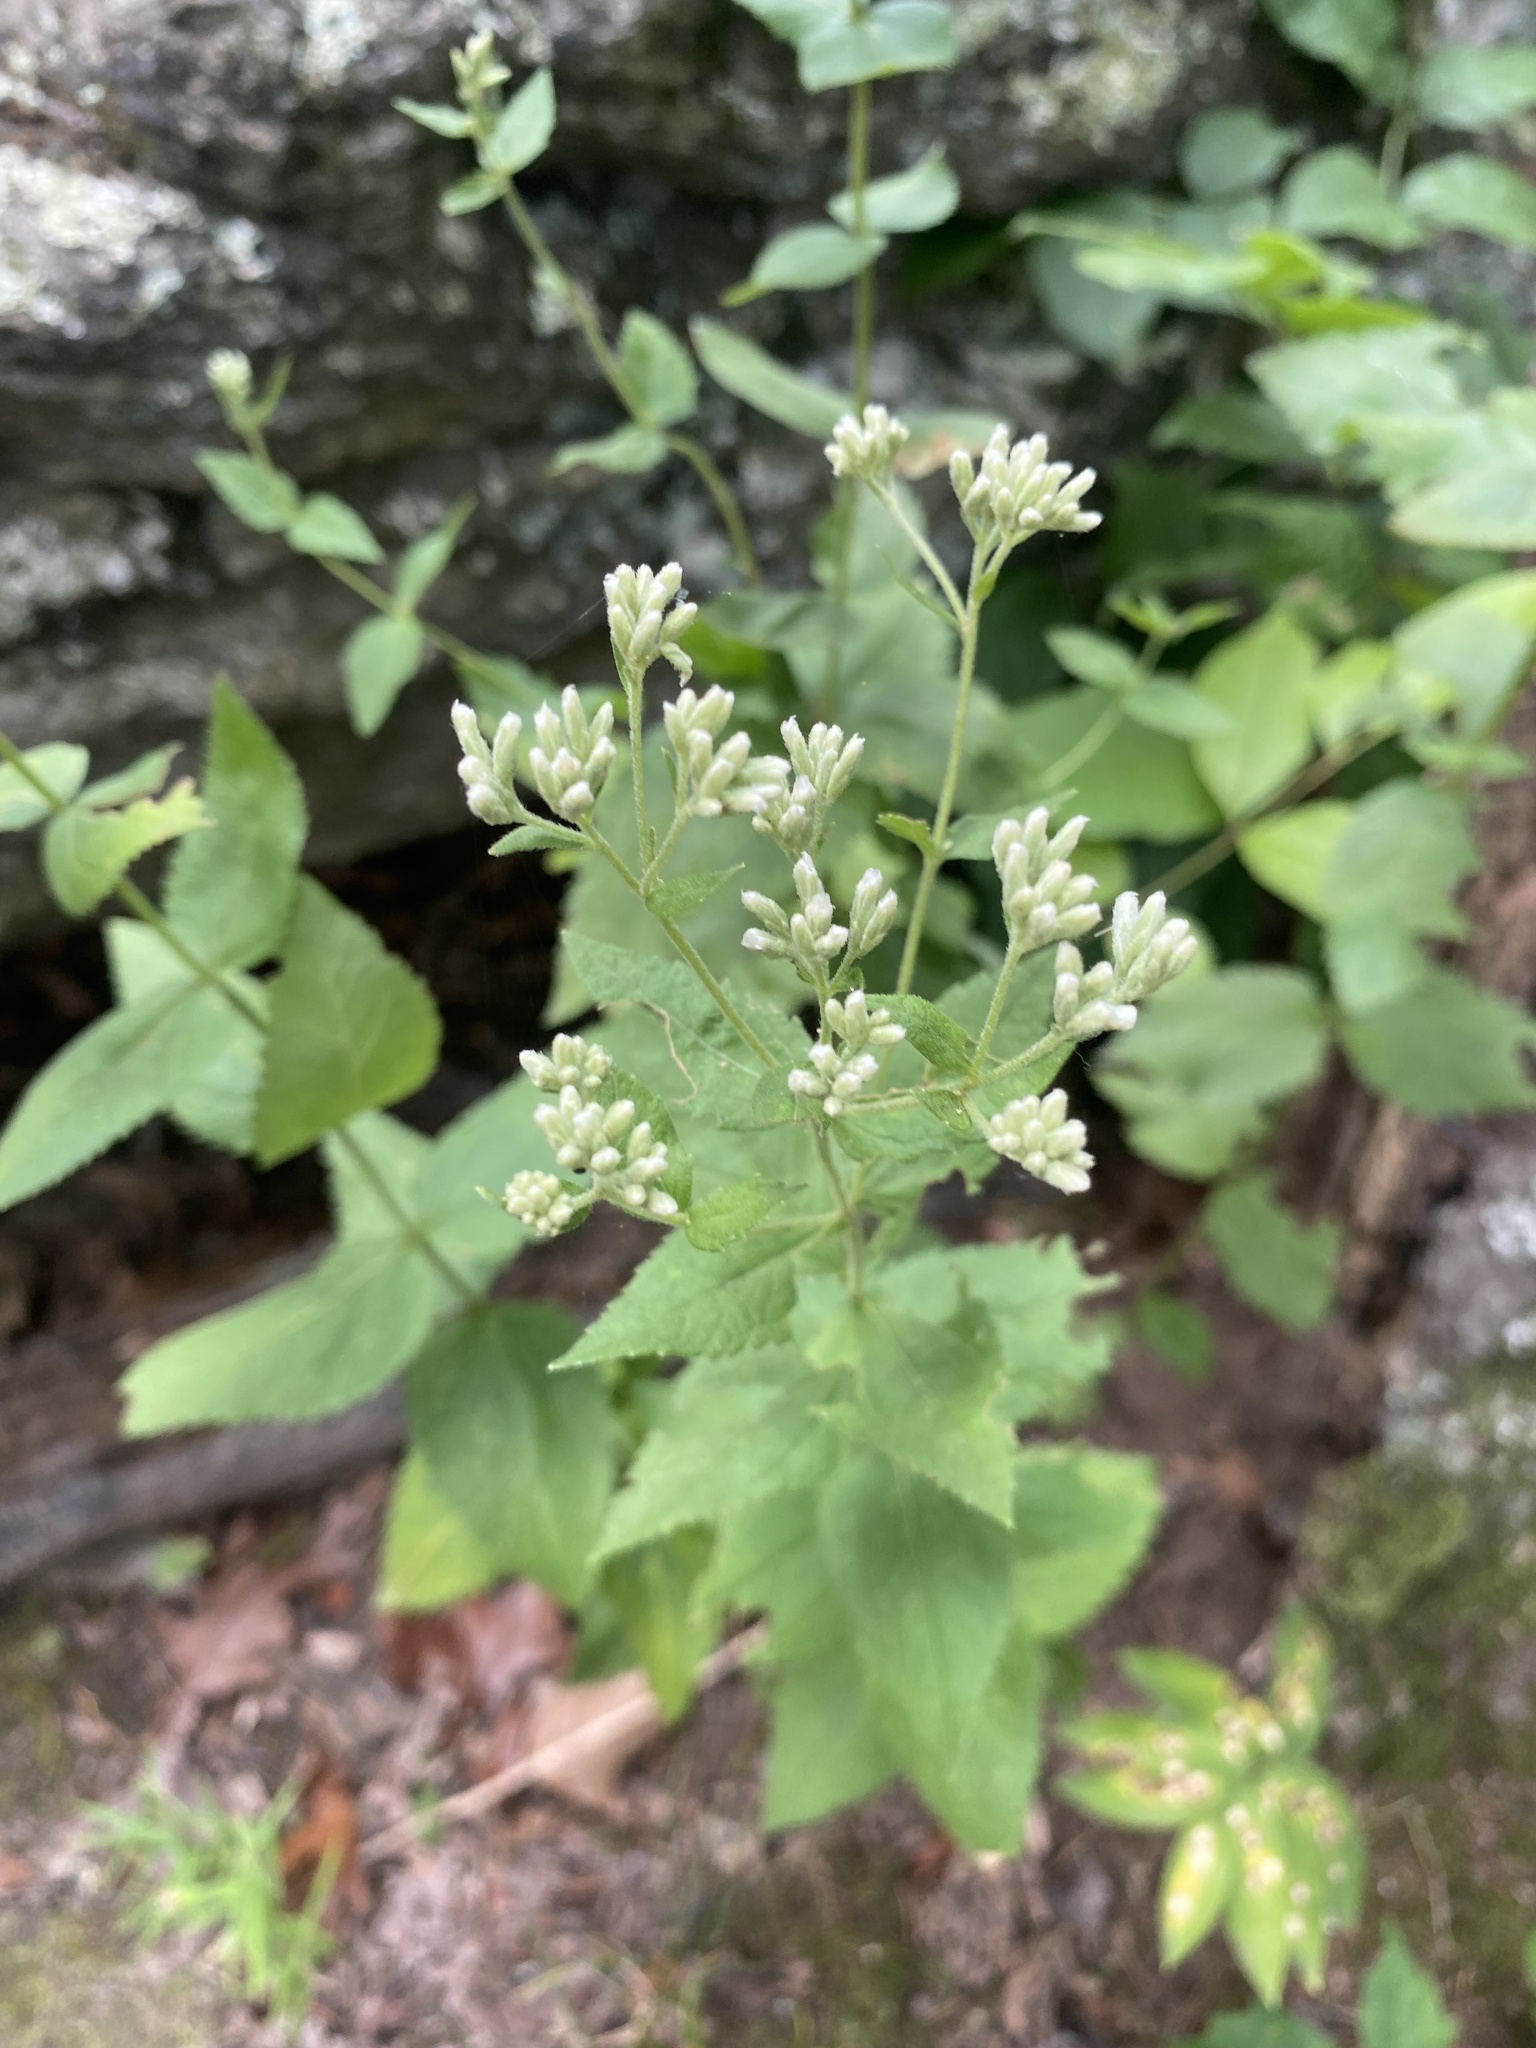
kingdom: Plantae
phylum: Tracheophyta
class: Magnoliopsida
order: Asterales
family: Asteraceae
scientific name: Asteraceae
